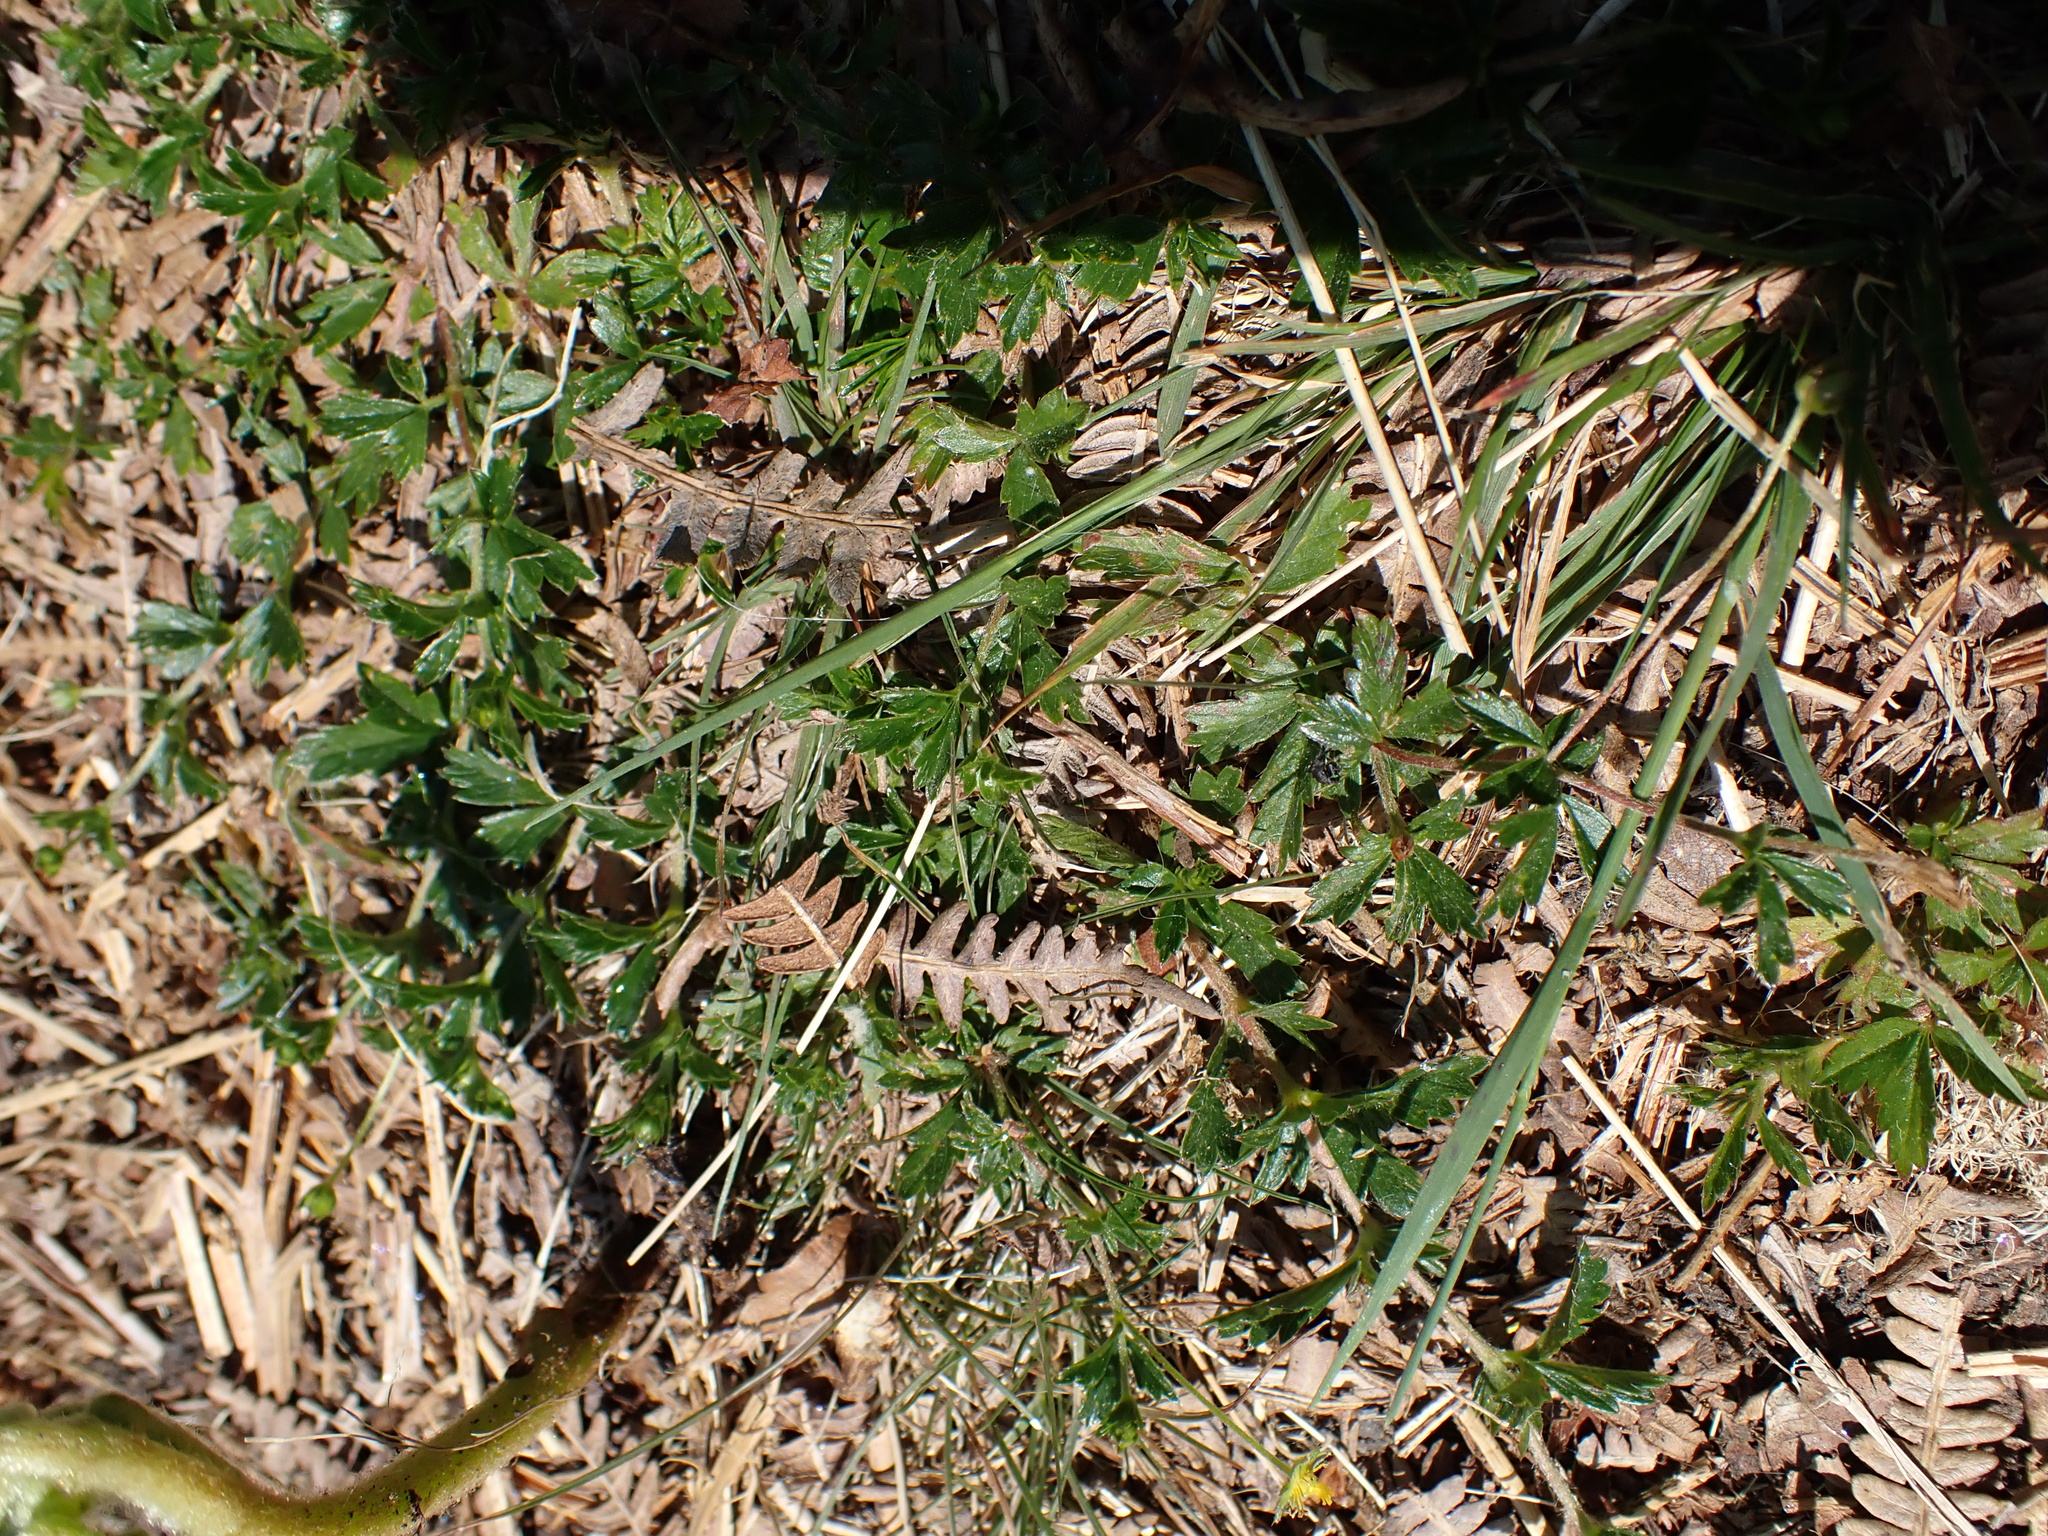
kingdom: Plantae
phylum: Tracheophyta
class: Magnoliopsida
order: Rosales
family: Rosaceae
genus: Potentilla
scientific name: Potentilla erecta
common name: Tormentil
